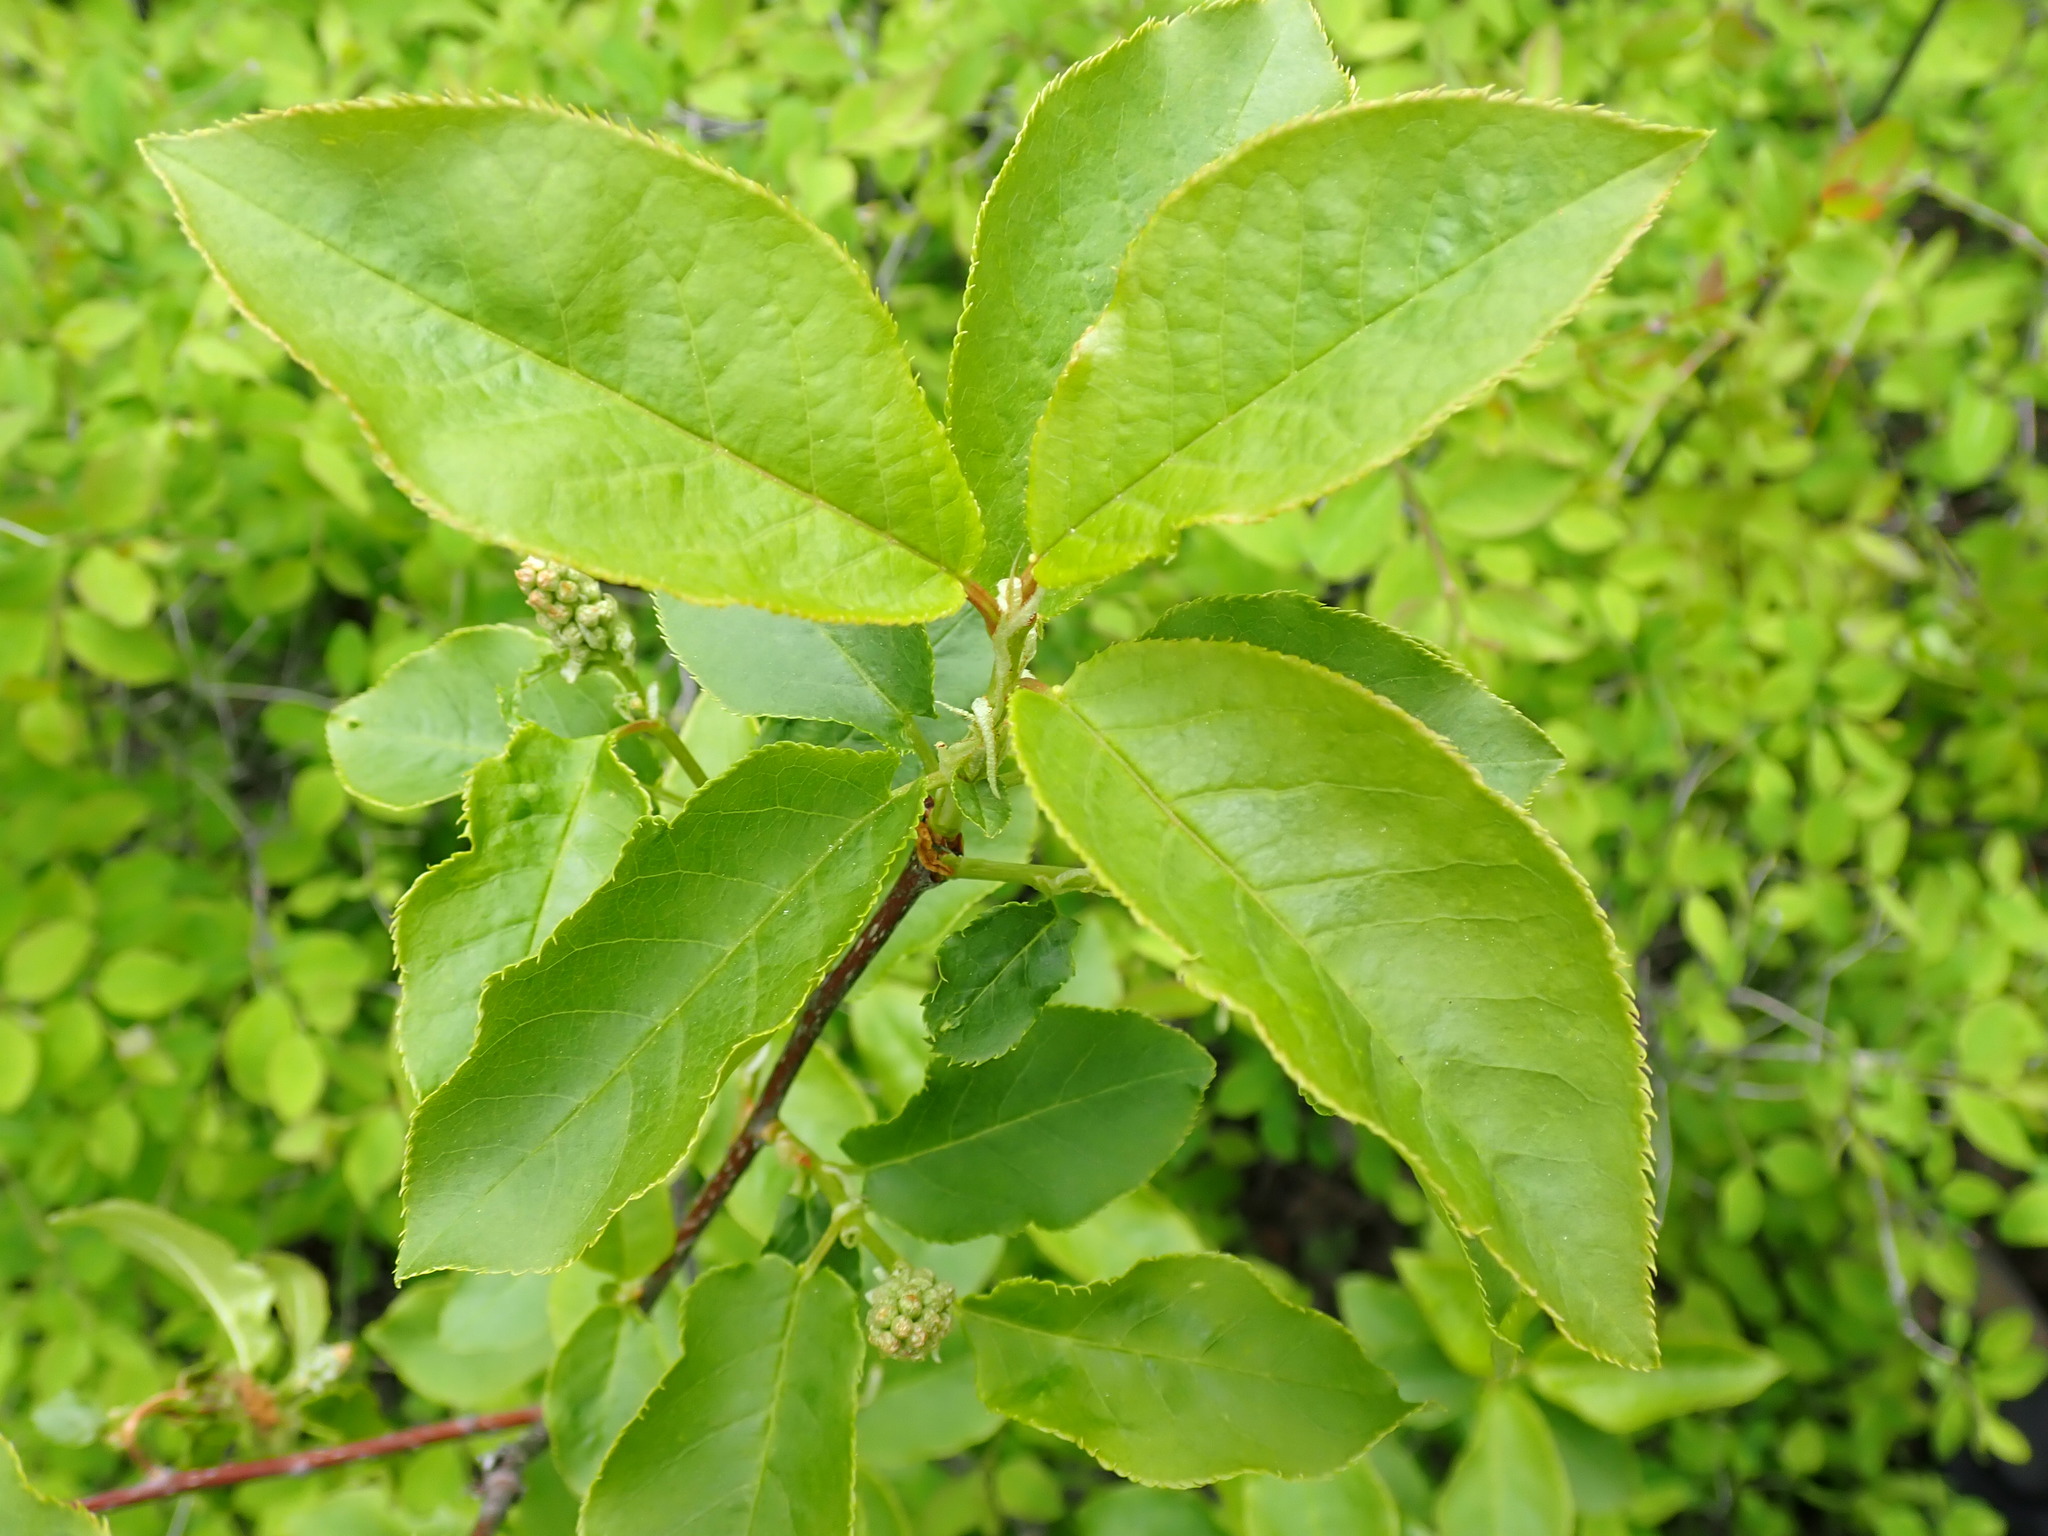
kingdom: Plantae
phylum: Tracheophyta
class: Magnoliopsida
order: Rosales
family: Rosaceae
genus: Prunus
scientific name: Prunus virginiana
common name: Chokecherry
